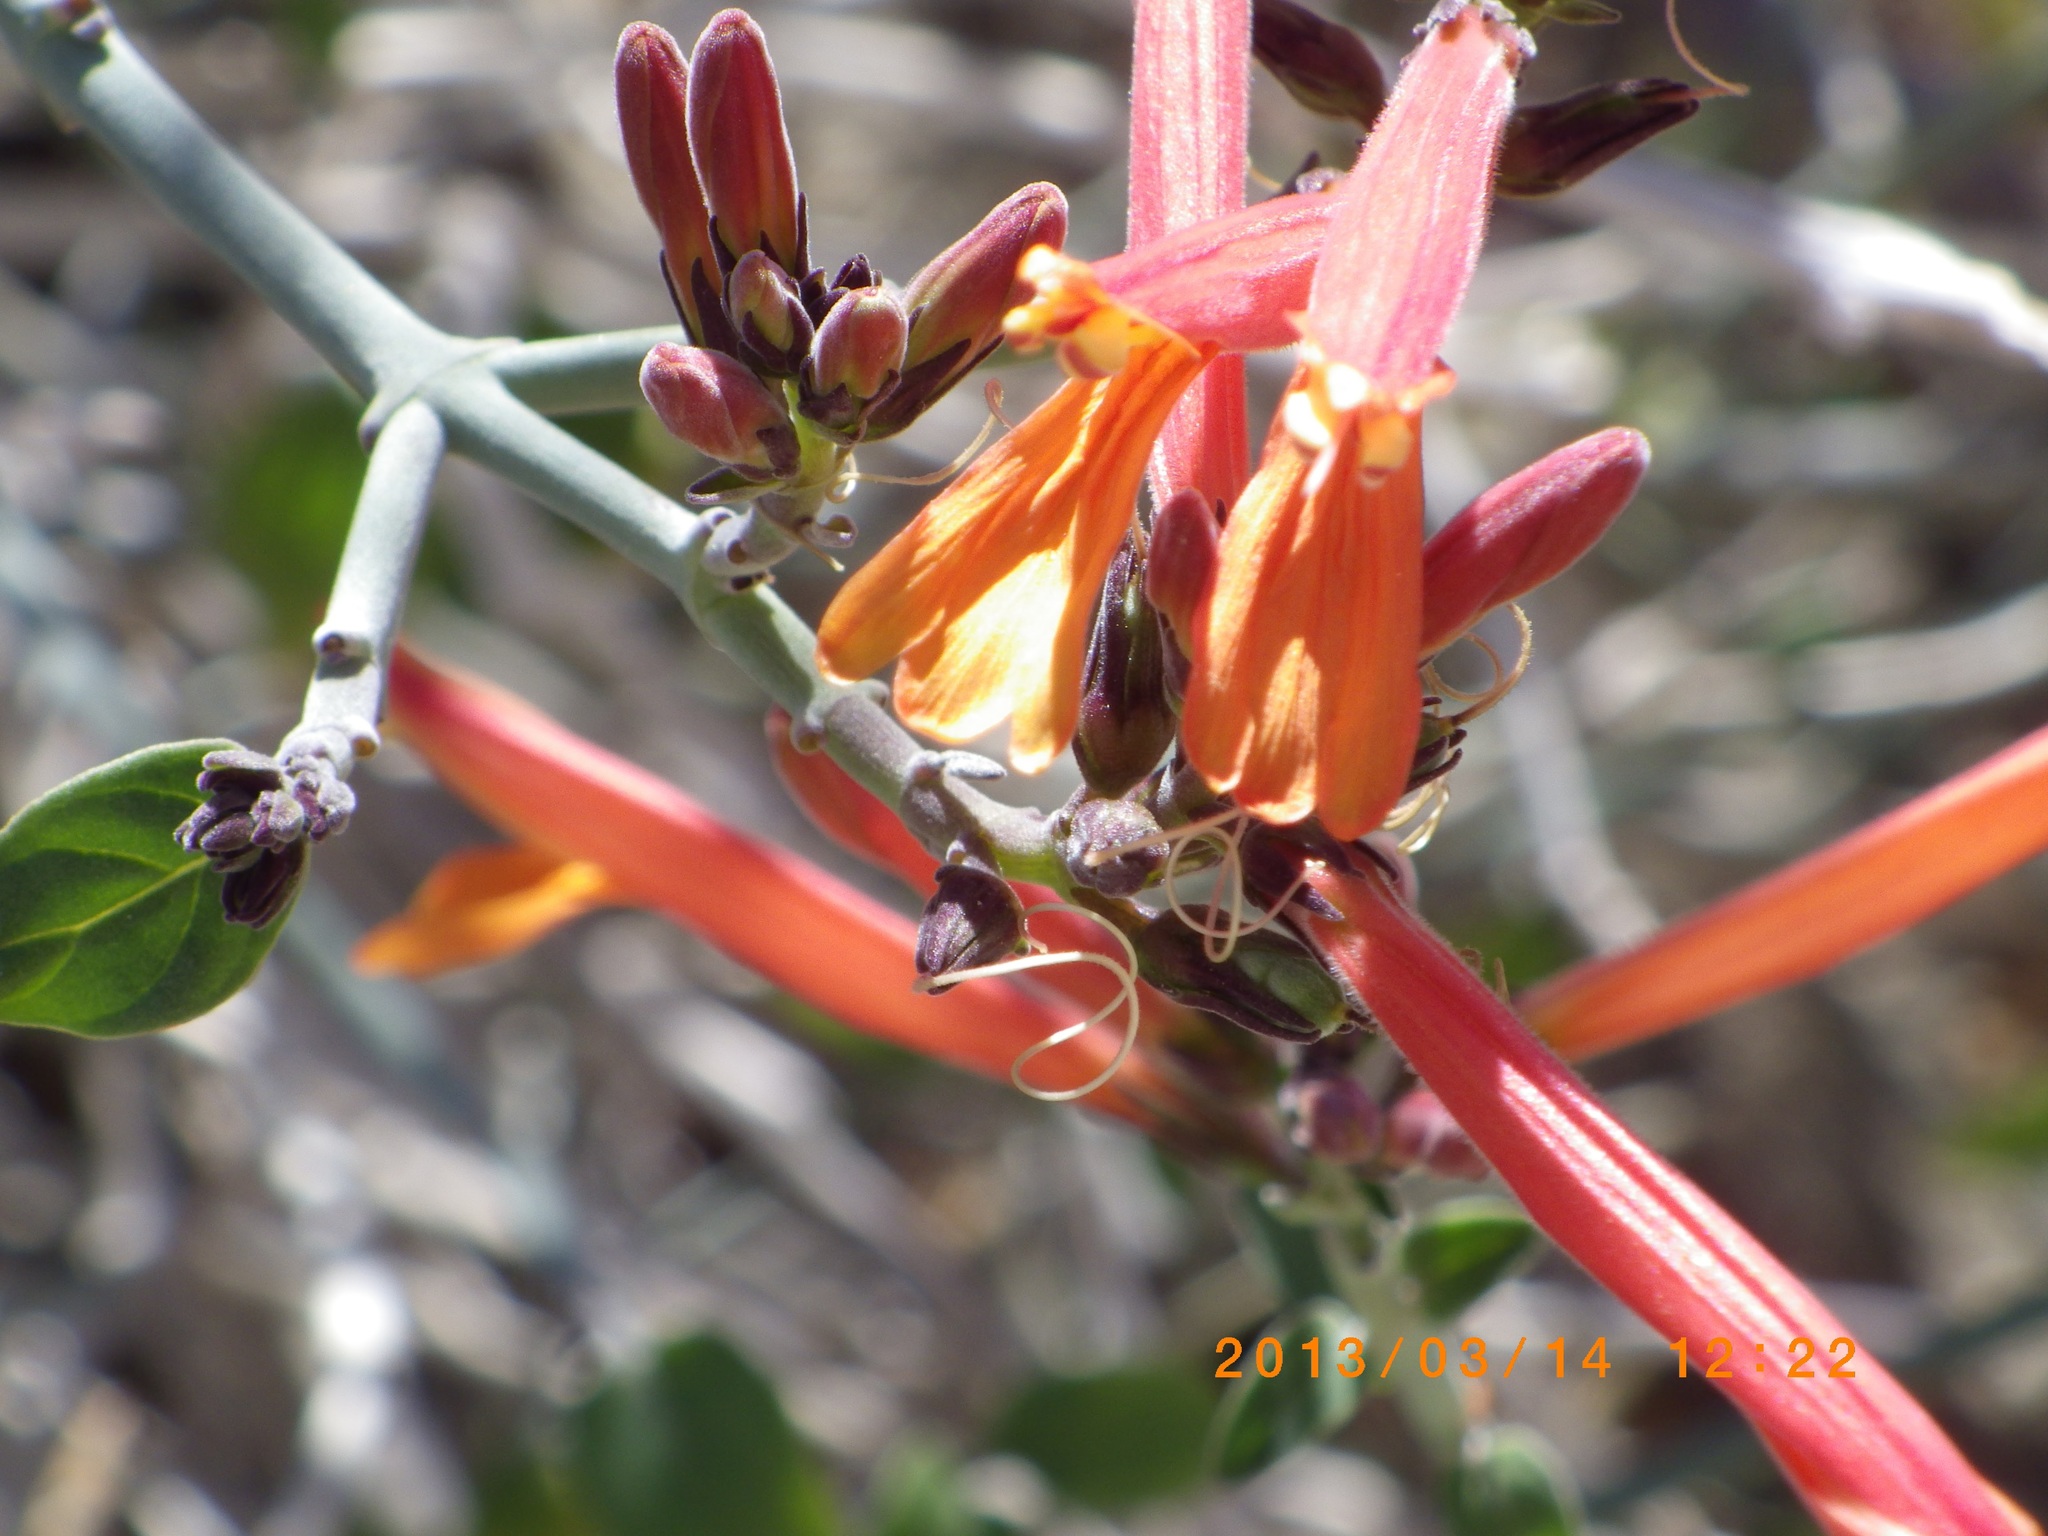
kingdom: Plantae
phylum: Tracheophyta
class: Magnoliopsida
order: Lamiales
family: Acanthaceae
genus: Justicia
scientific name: Justicia californica
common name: Chuparosa-honeysuckle
